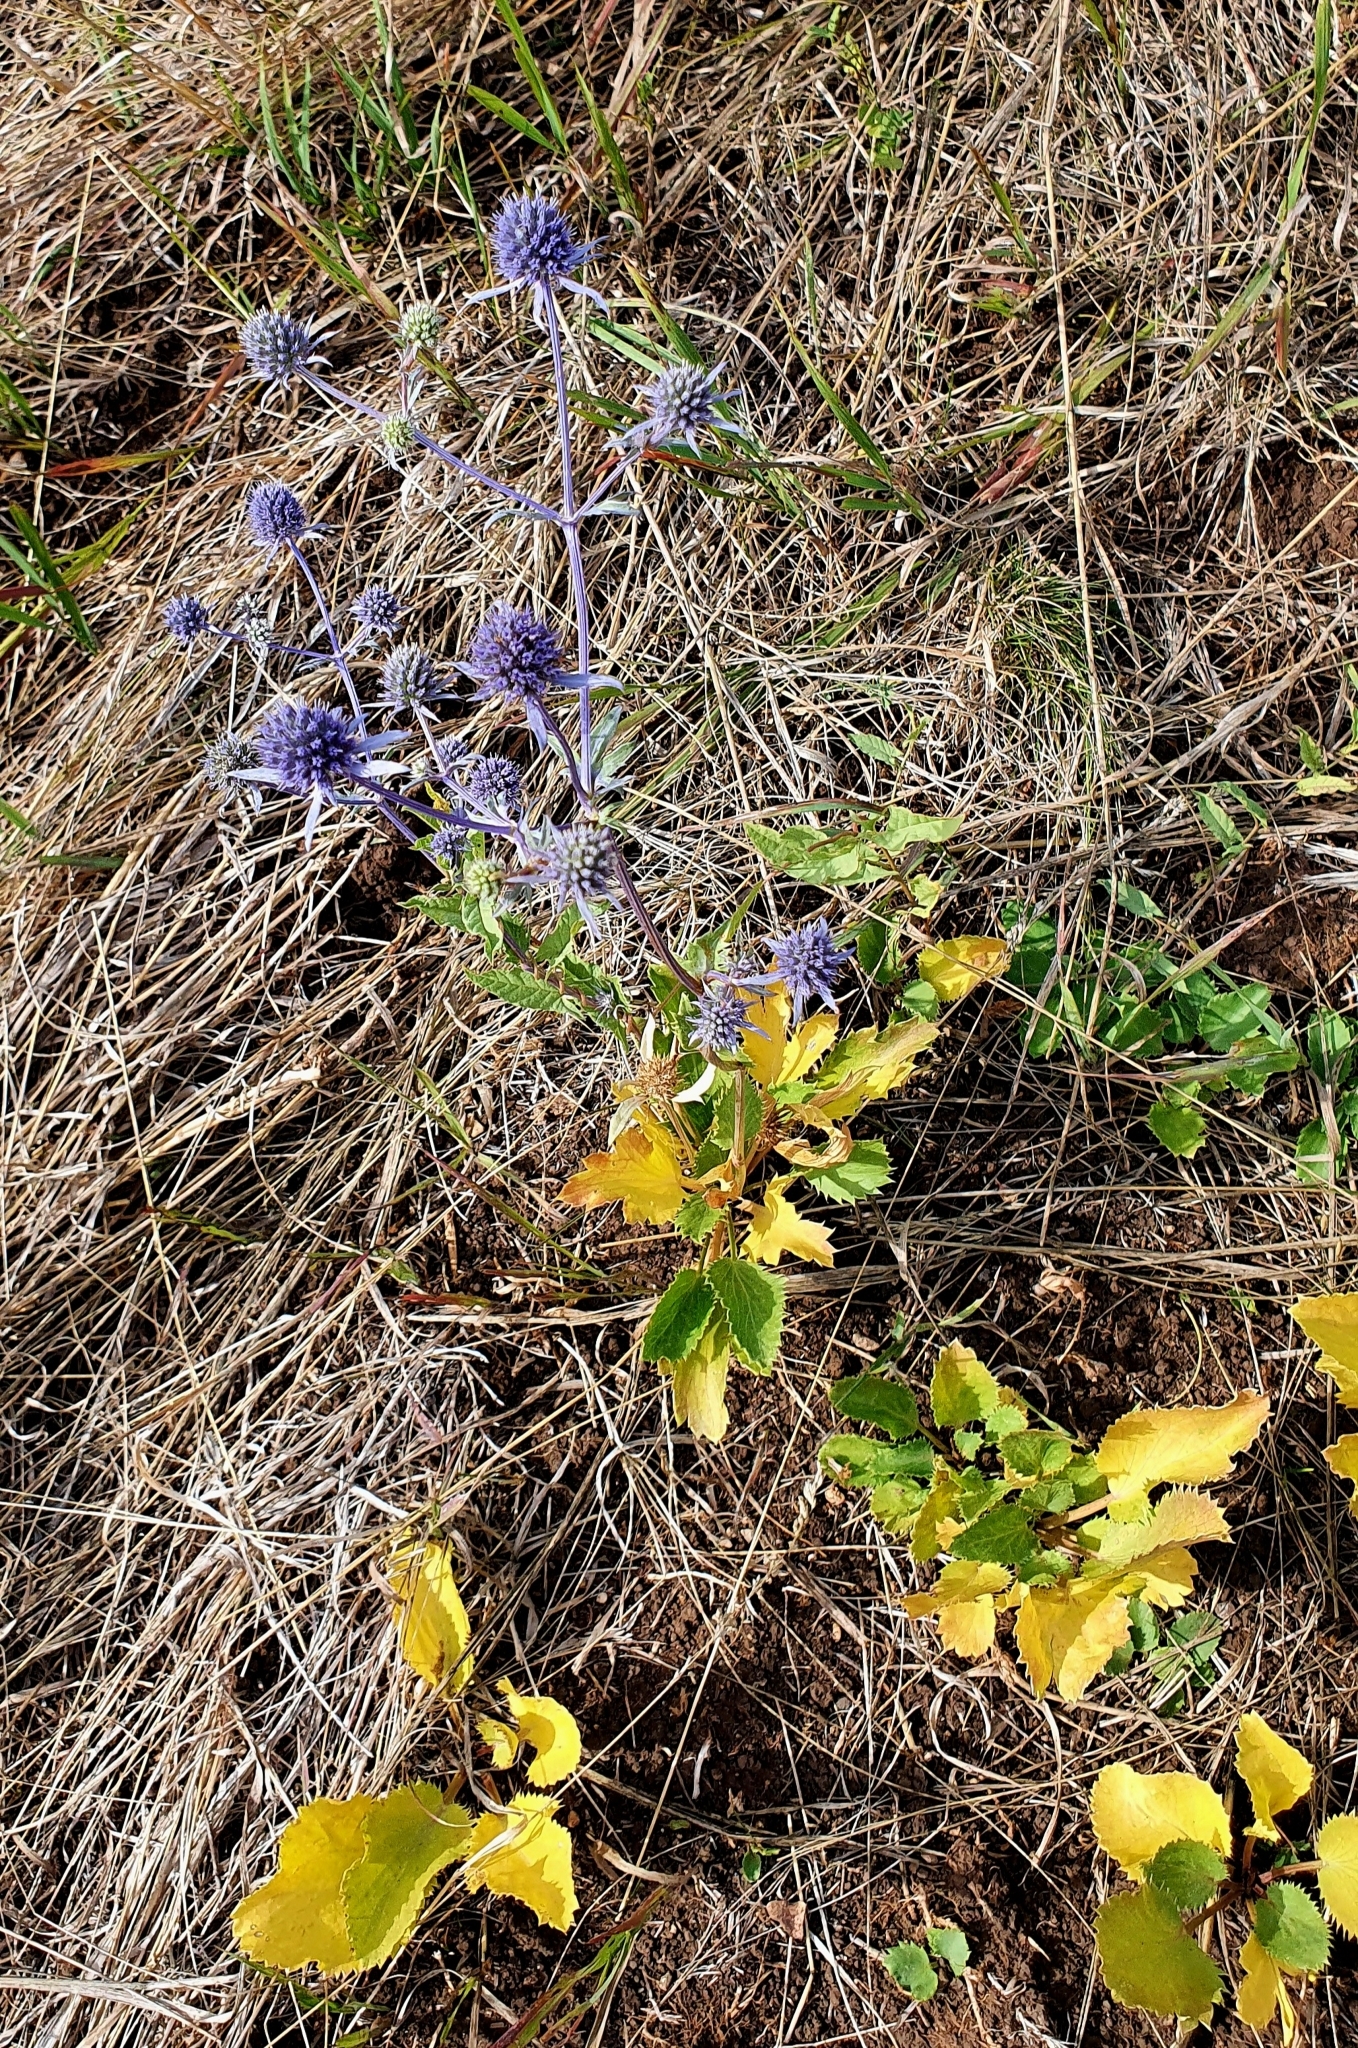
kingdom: Plantae
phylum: Tracheophyta
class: Magnoliopsida
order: Apiales
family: Apiaceae
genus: Eryngium
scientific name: Eryngium planum
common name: Blue eryngo
